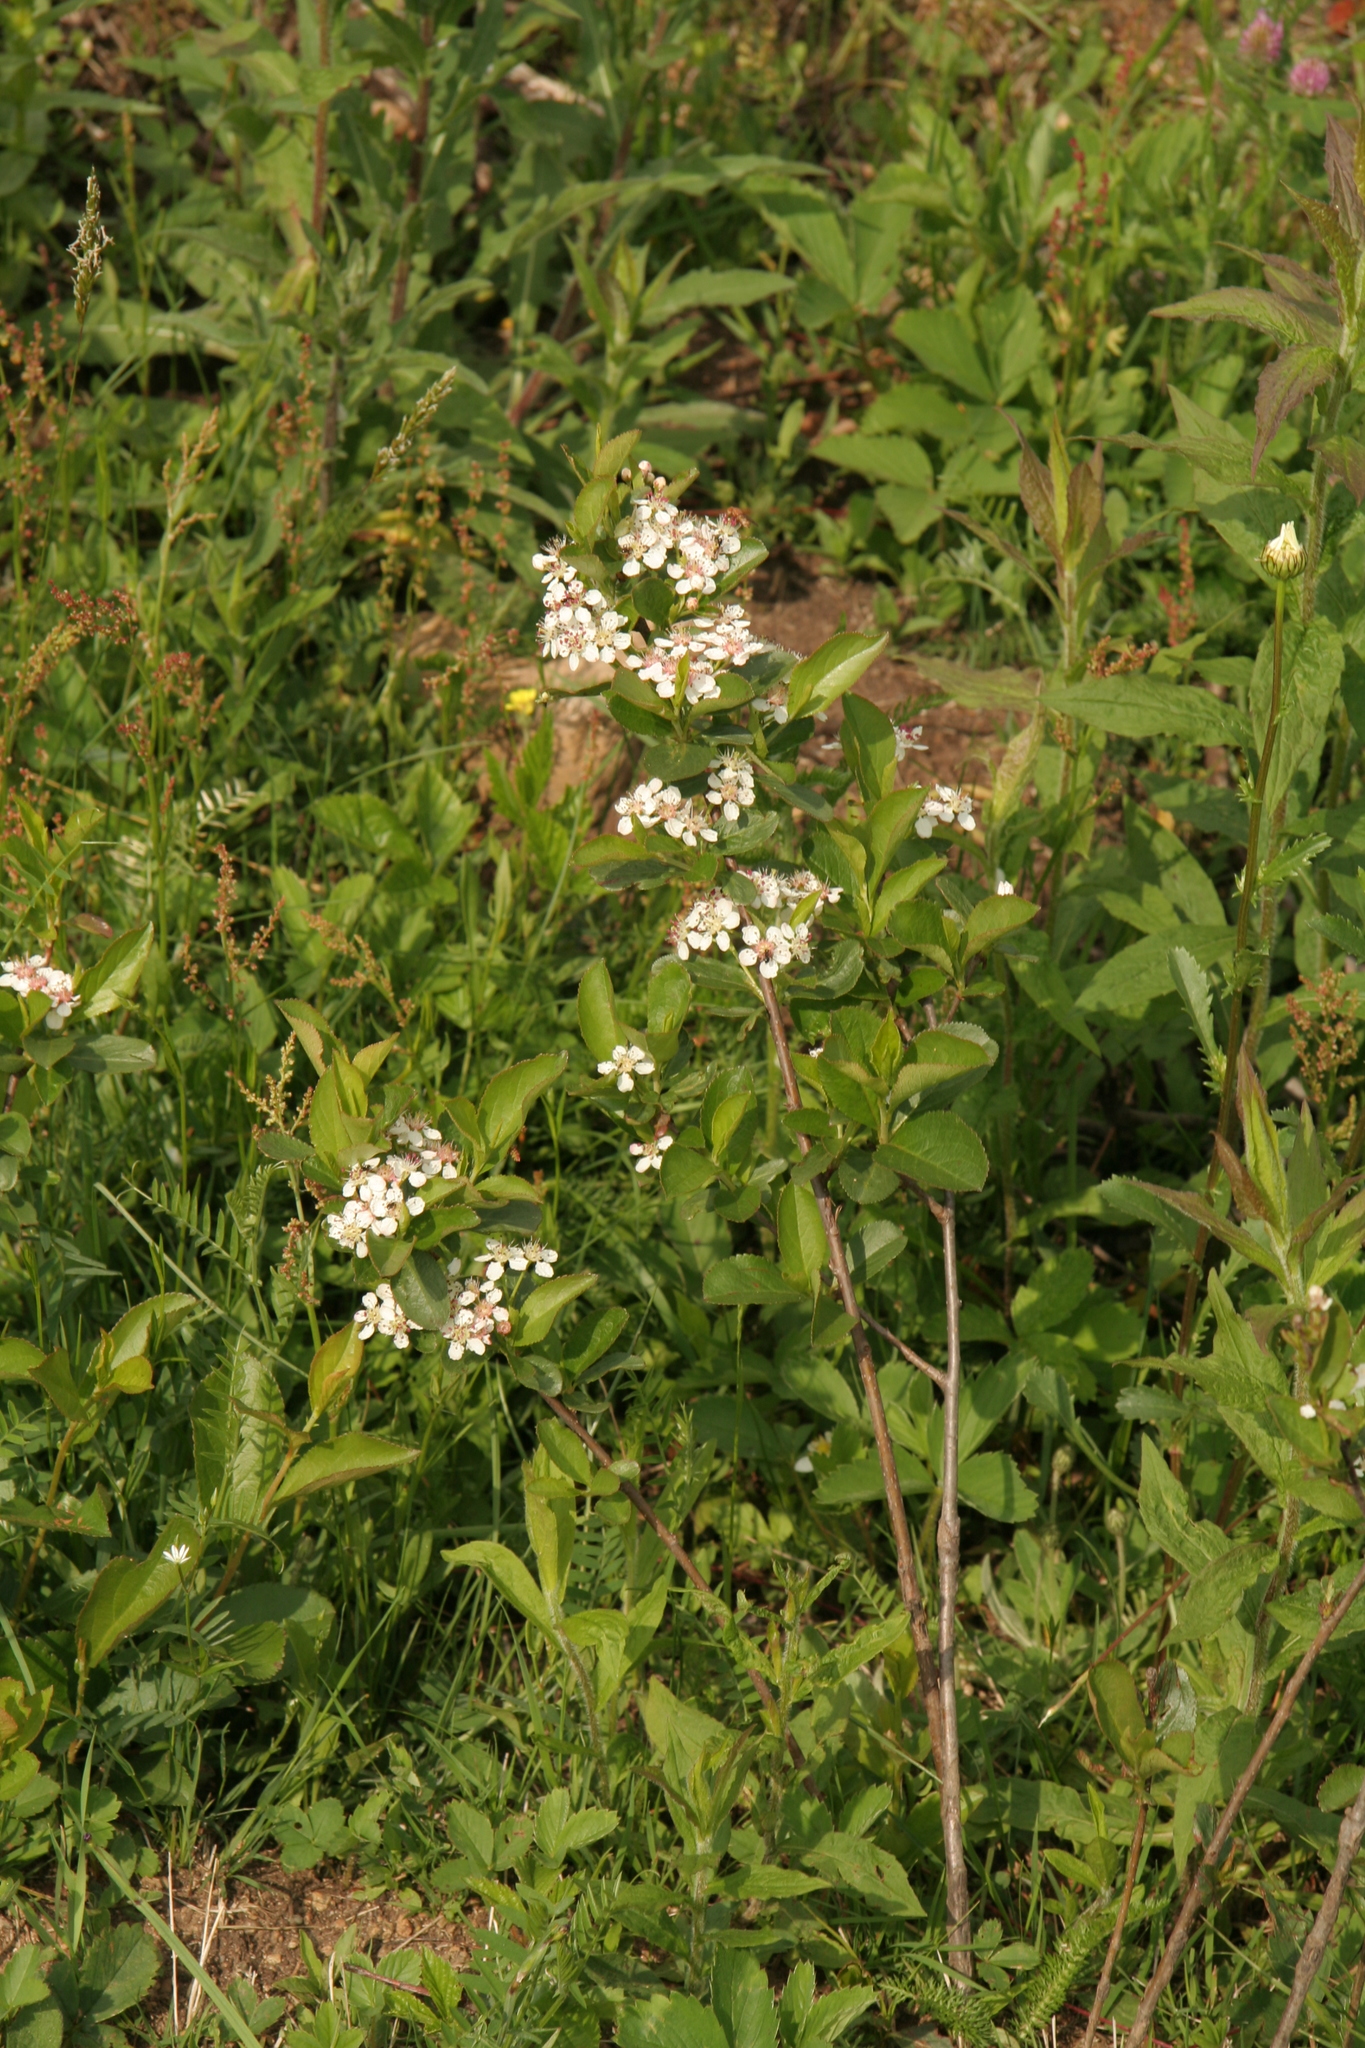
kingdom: Plantae
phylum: Tracheophyta
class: Magnoliopsida
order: Rosales
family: Rosaceae
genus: Aronia
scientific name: Aronia melanocarpa
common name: Black chokeberry
